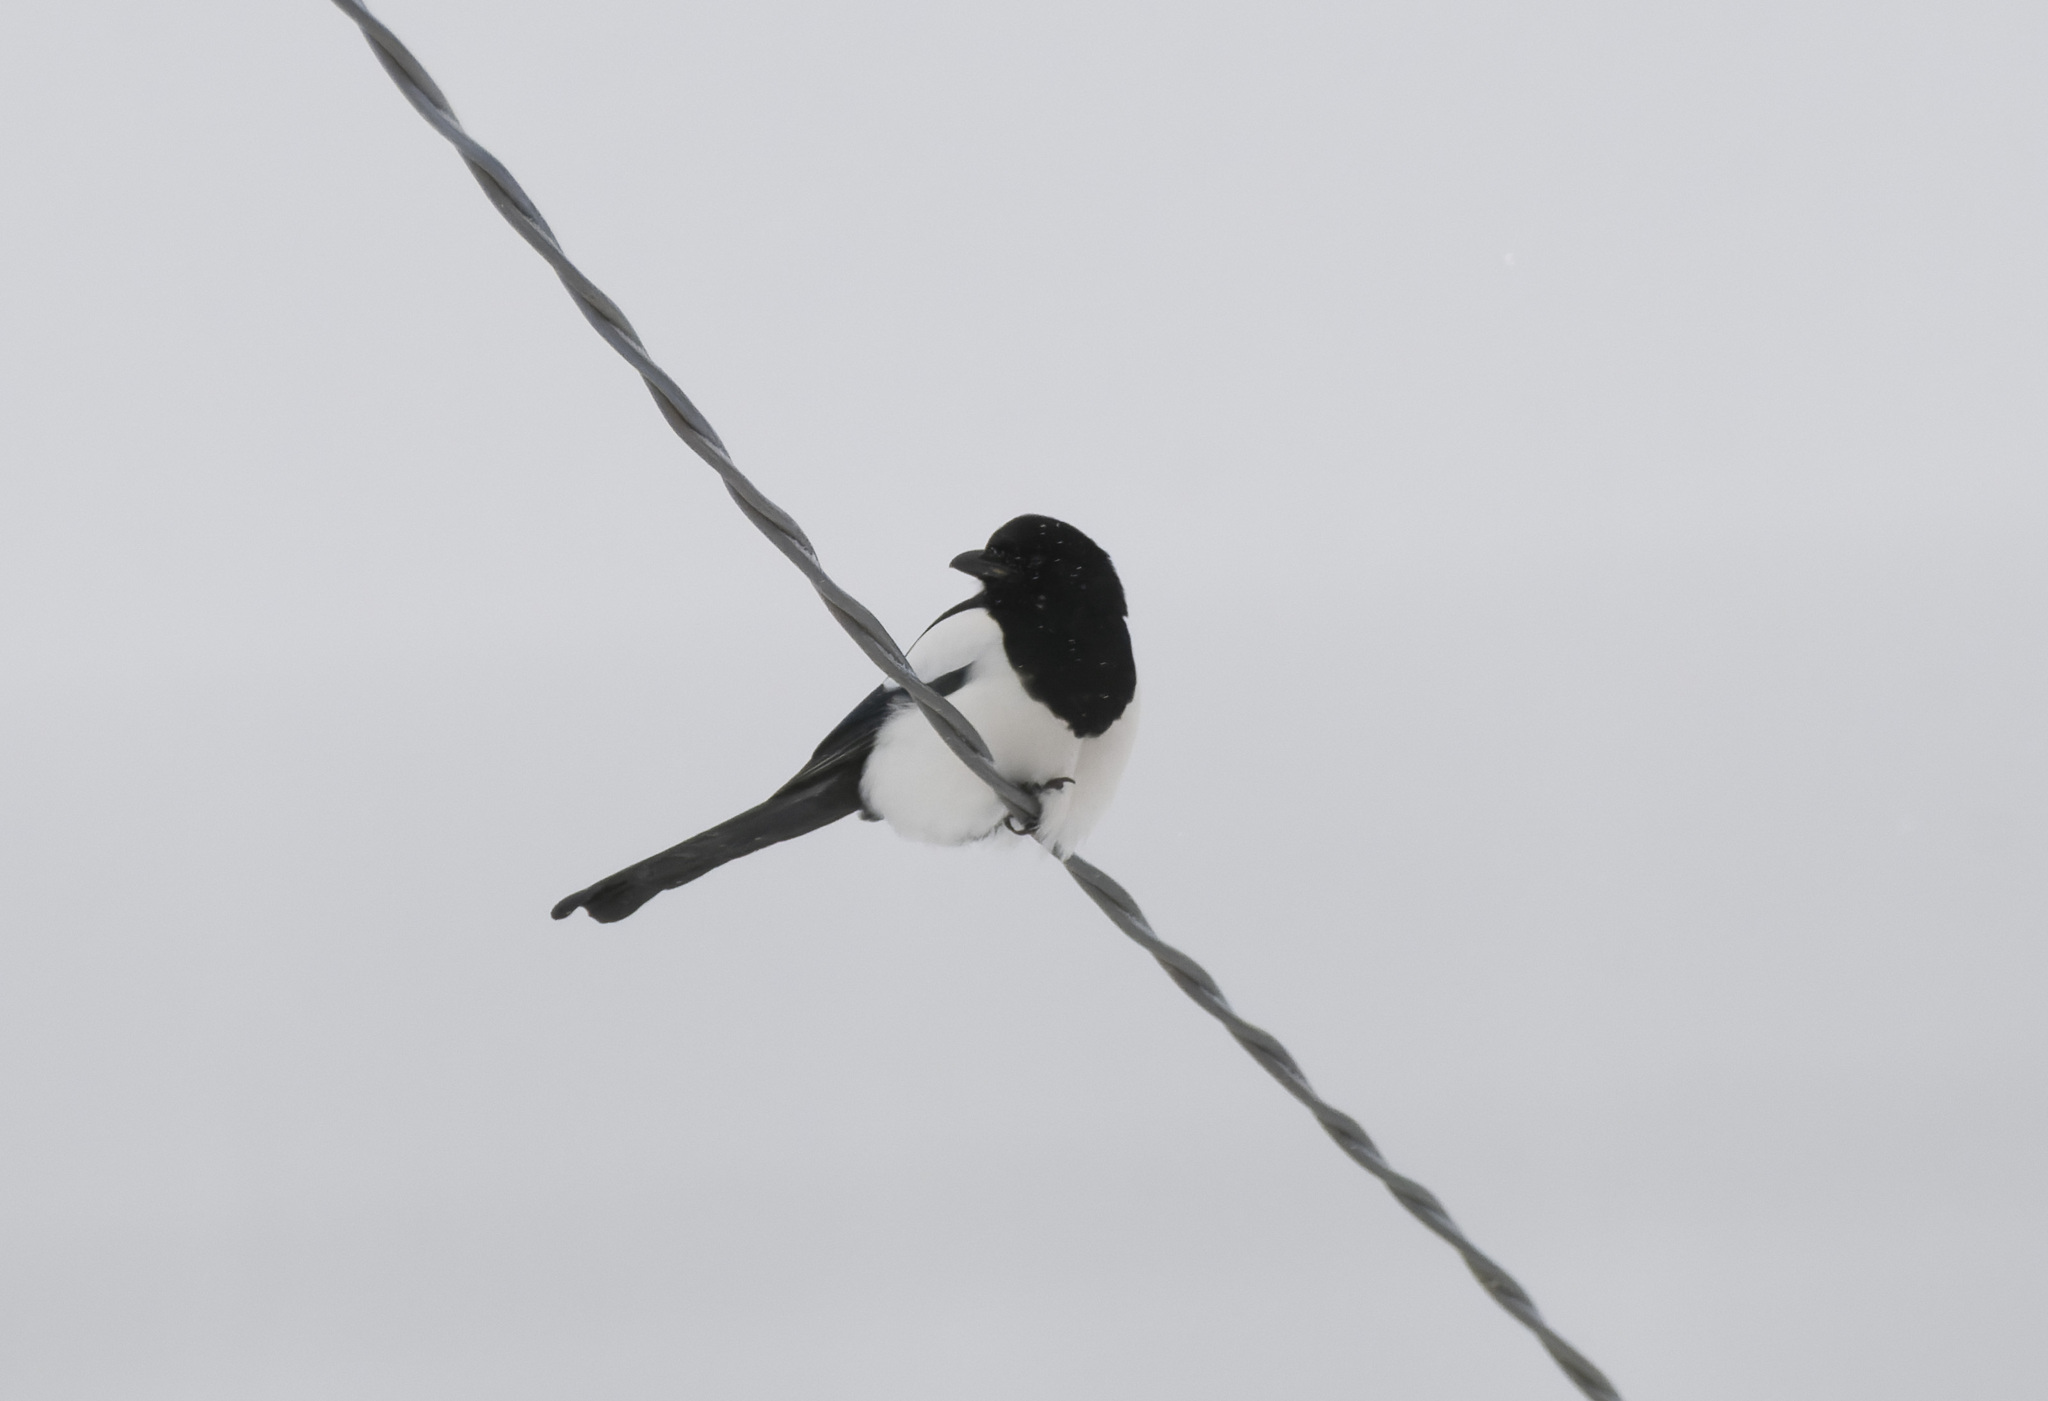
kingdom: Animalia
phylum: Chordata
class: Aves
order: Passeriformes
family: Corvidae
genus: Pica
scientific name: Pica pica
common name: Eurasian magpie
